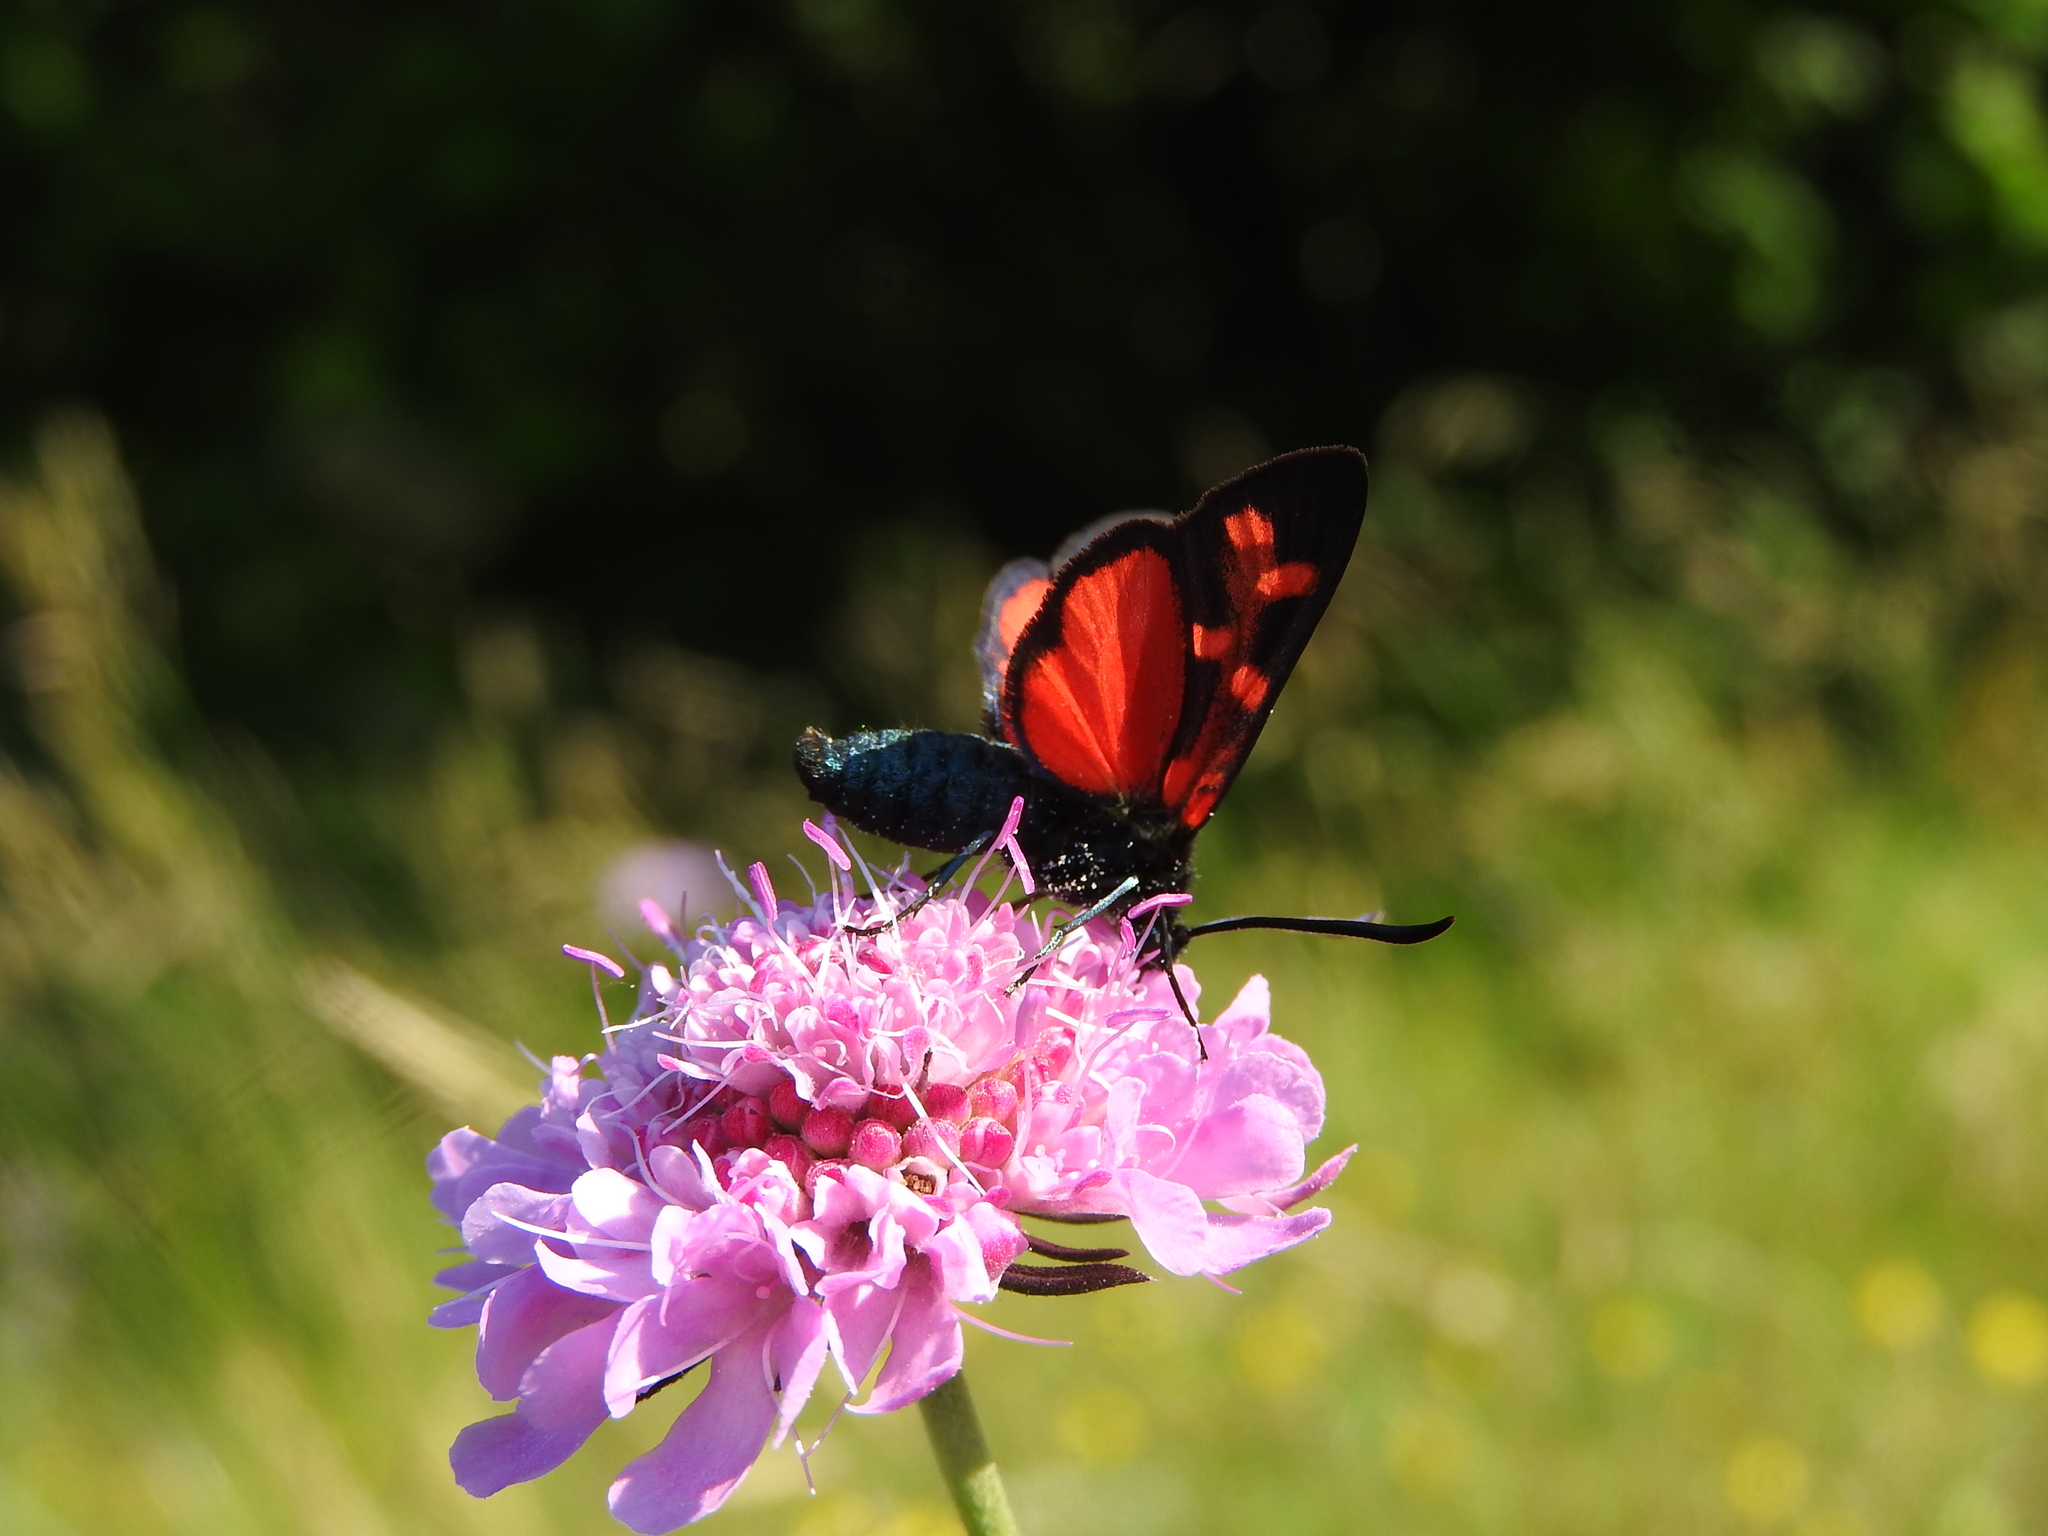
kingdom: Animalia
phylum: Arthropoda
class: Insecta
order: Lepidoptera
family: Zygaenidae
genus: Zygaena
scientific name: Zygaena transalpina
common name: Southern six spot burnet
